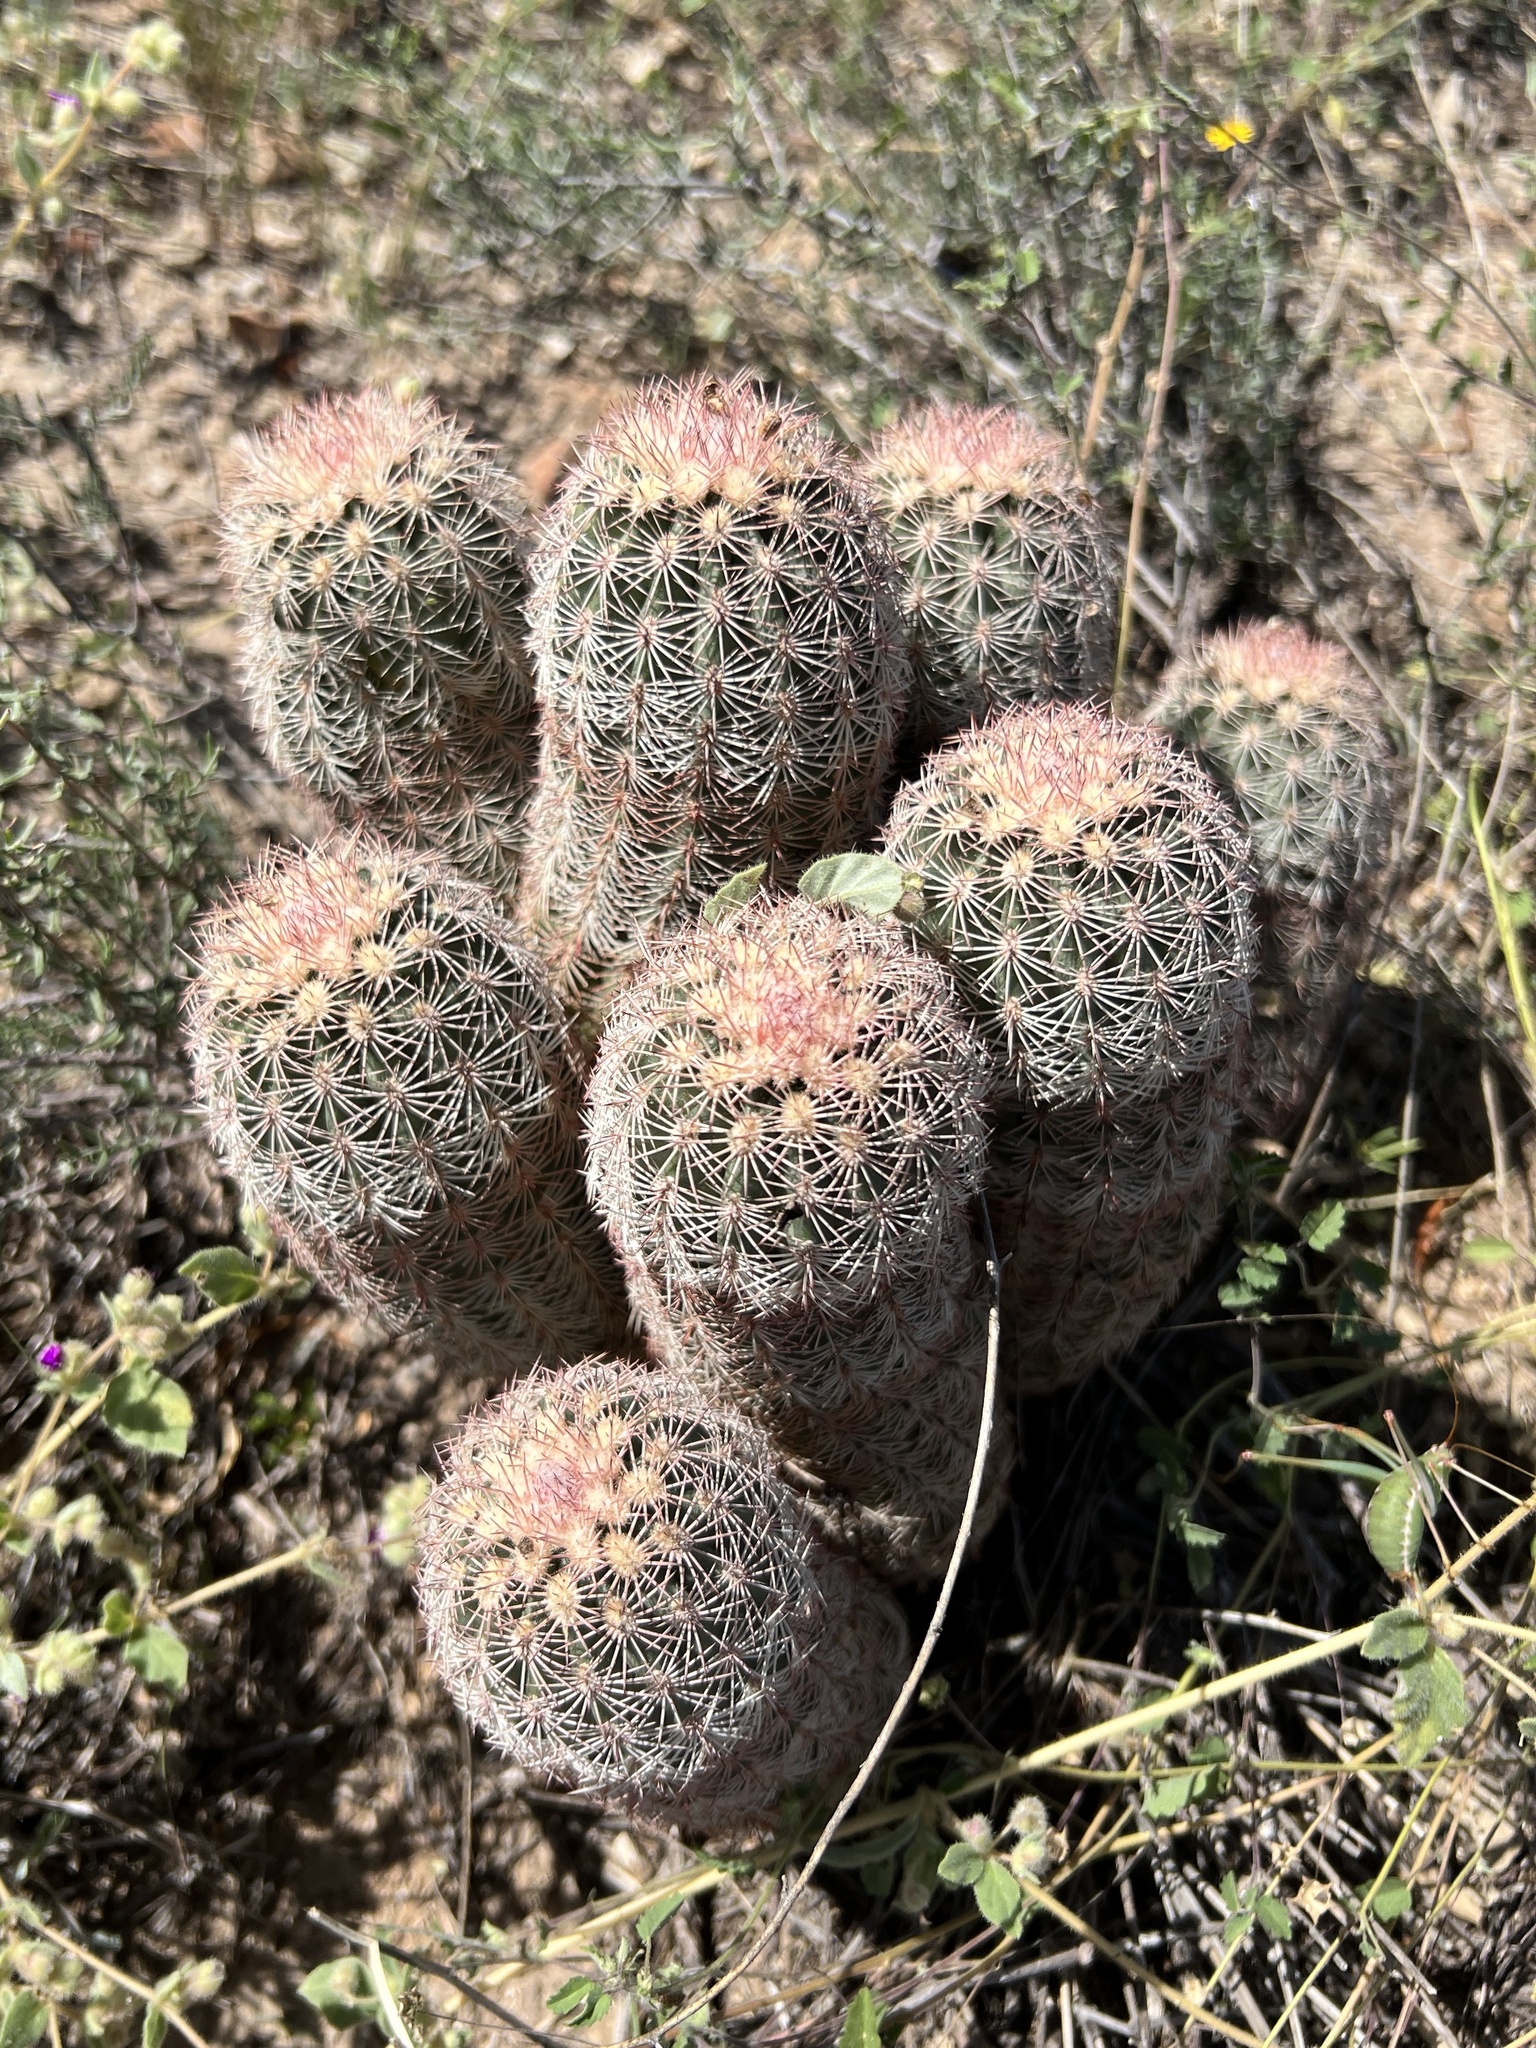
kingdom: Plantae
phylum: Tracheophyta
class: Magnoliopsida
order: Caryophyllales
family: Cactaceae
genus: Echinocereus
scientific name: Echinocereus dasyacanthus
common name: Spiny hedgehog cactus
